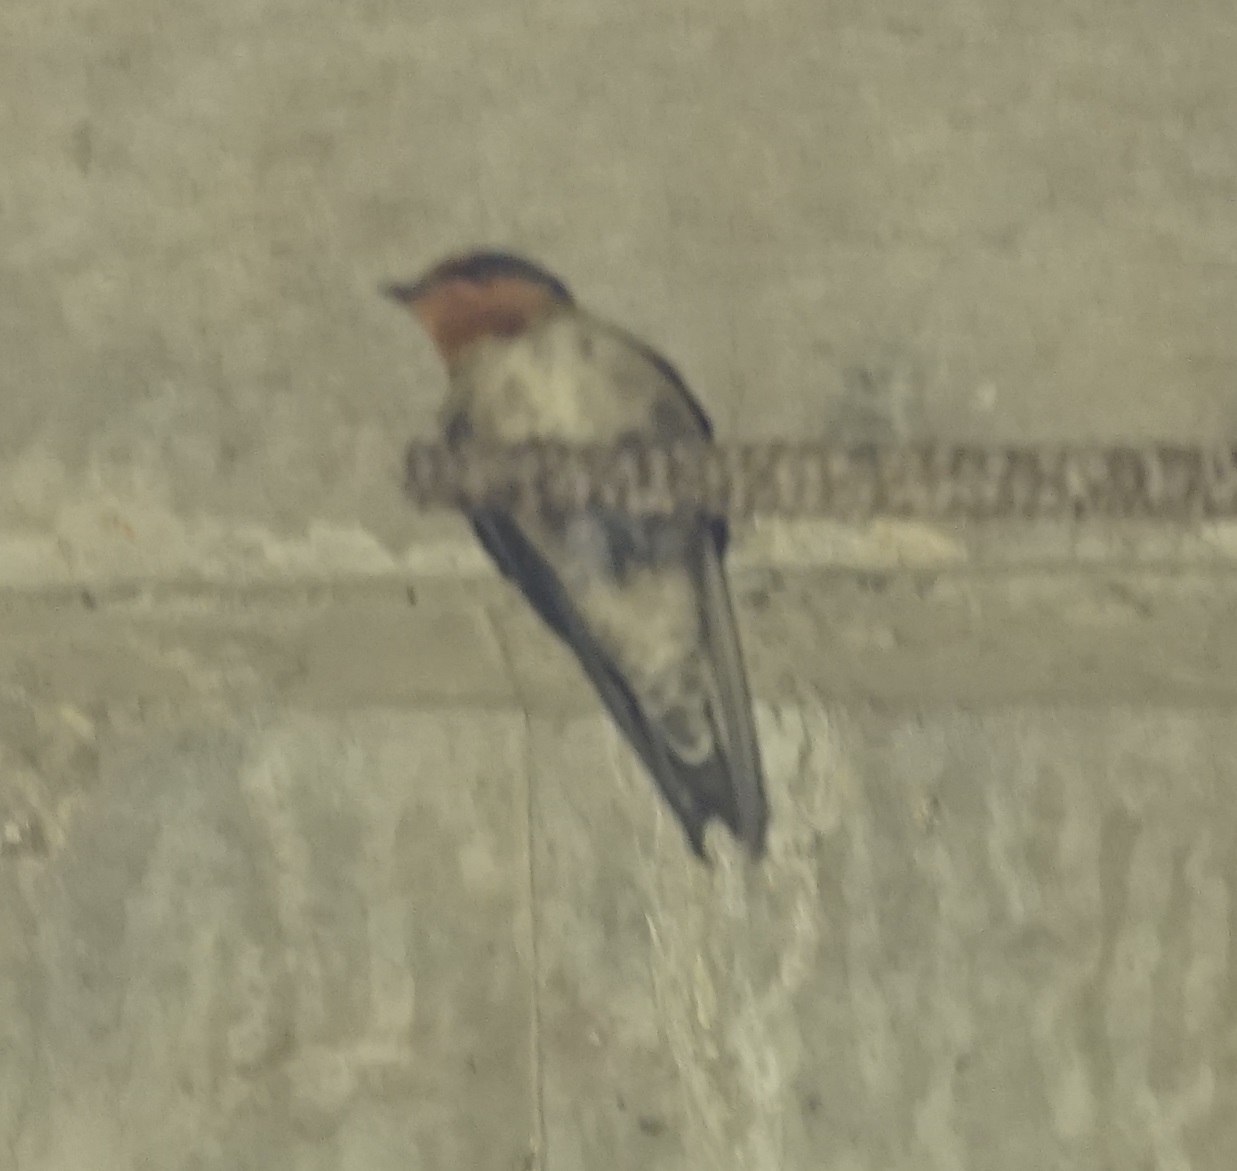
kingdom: Animalia
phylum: Chordata
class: Aves
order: Passeriformes
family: Hirundinidae
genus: Hirundo
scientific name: Hirundo tahitica
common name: Pacific swallow
